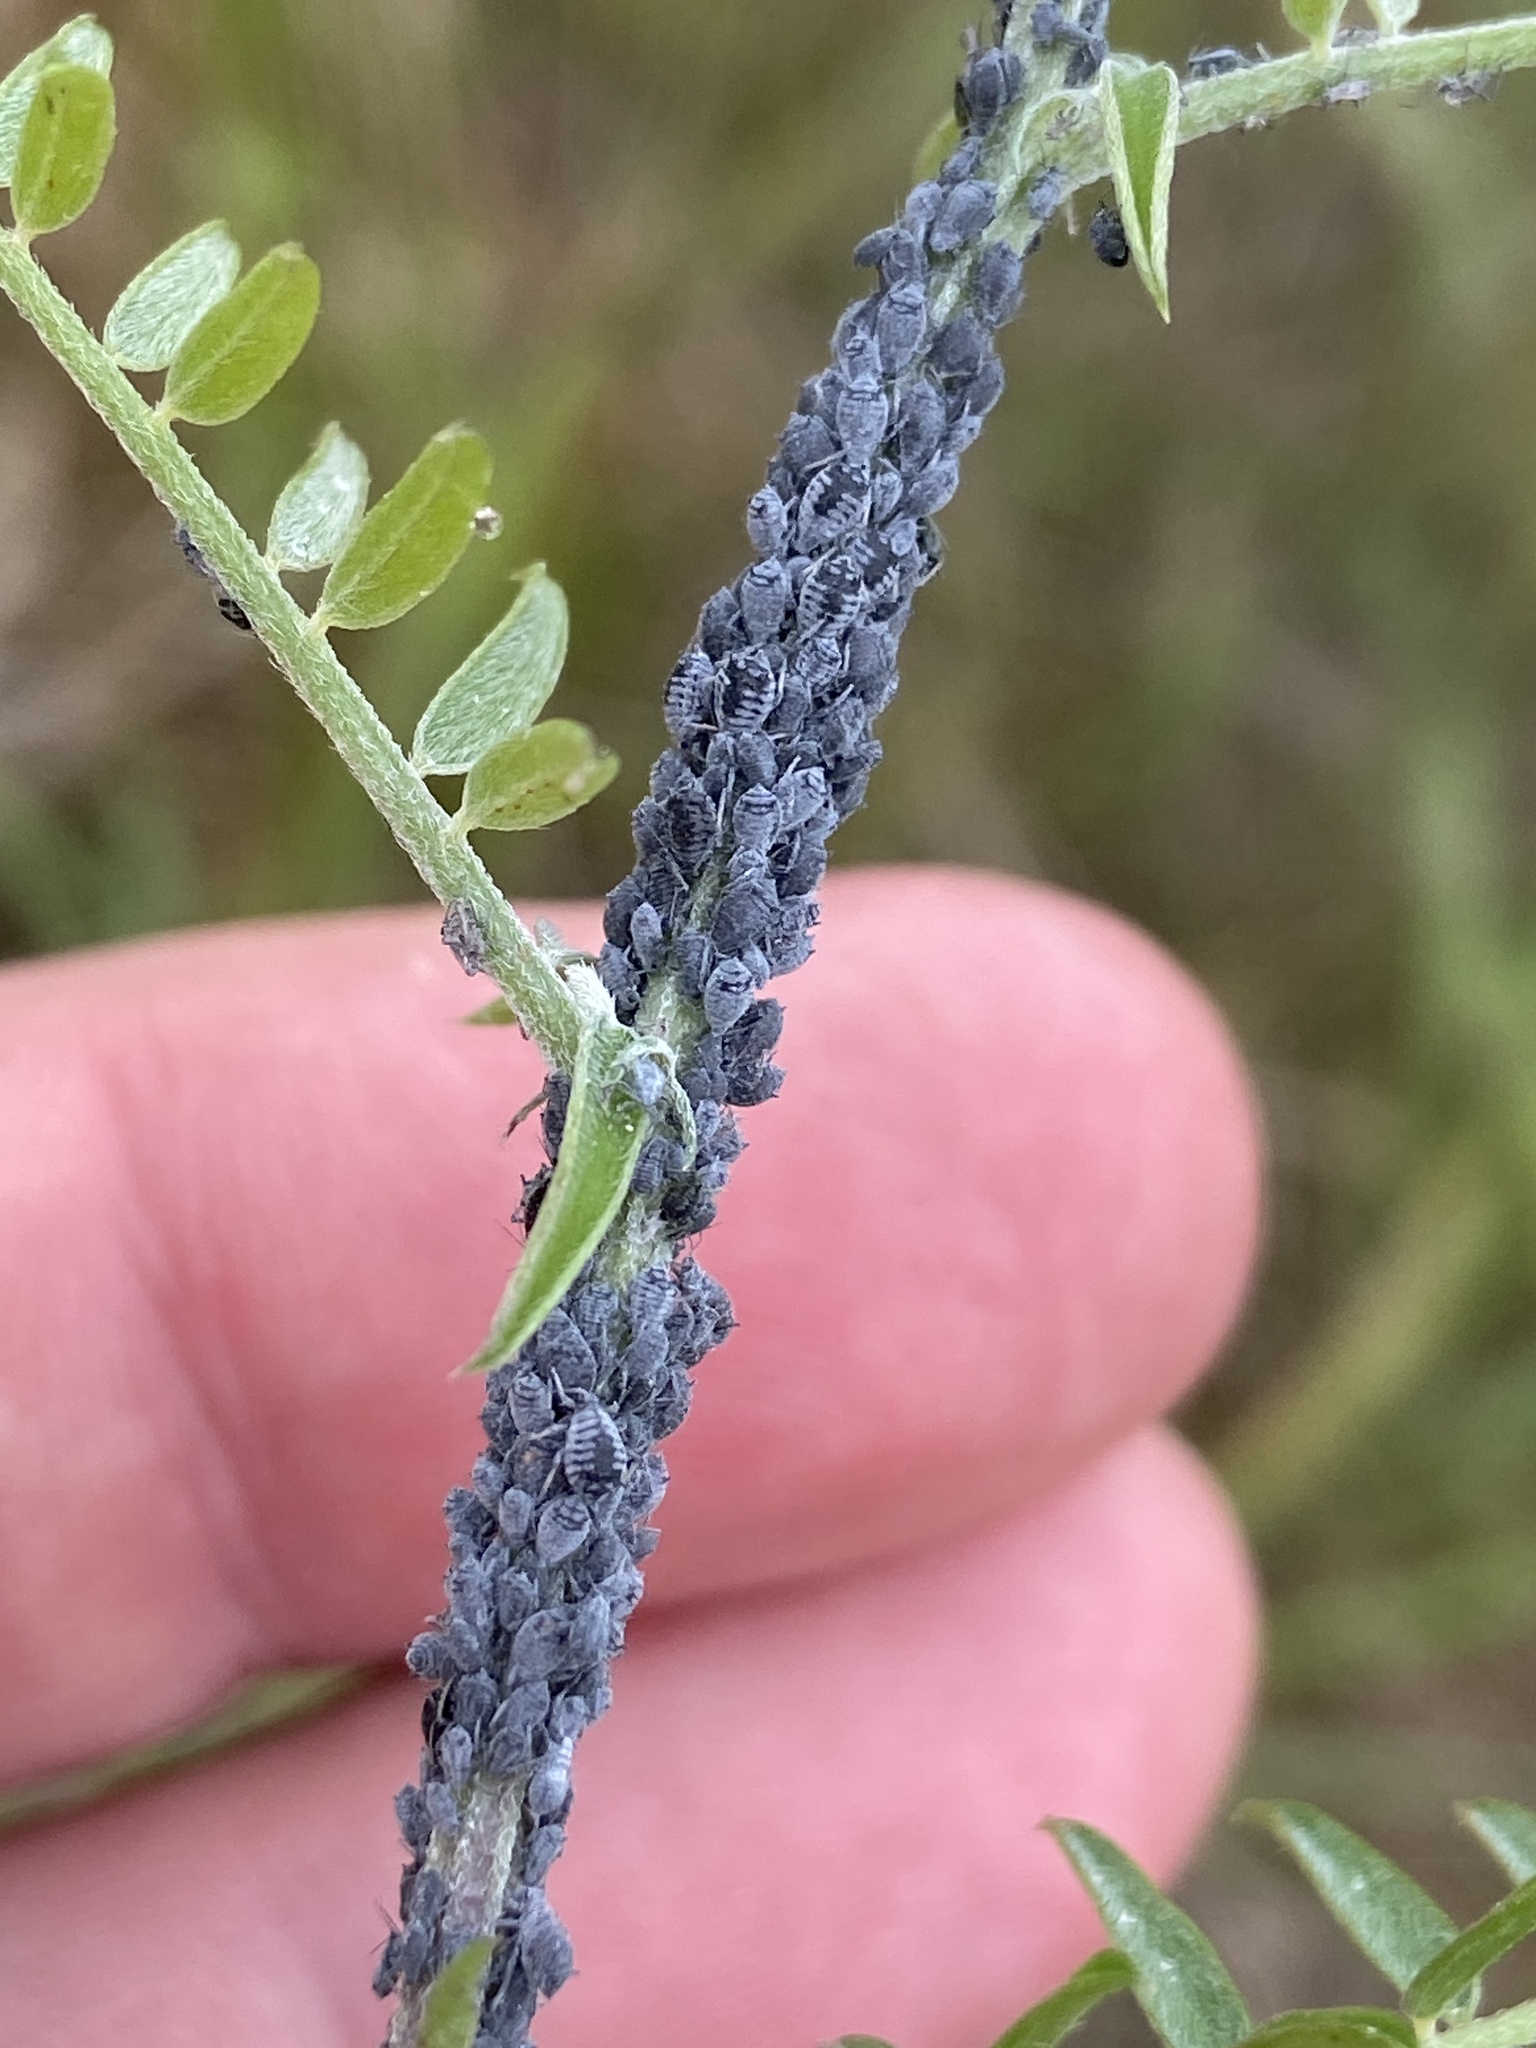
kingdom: Animalia
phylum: Arthropoda
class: Insecta
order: Hemiptera
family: Aphididae
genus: Aphis
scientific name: Aphis craccae
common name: Aphid
